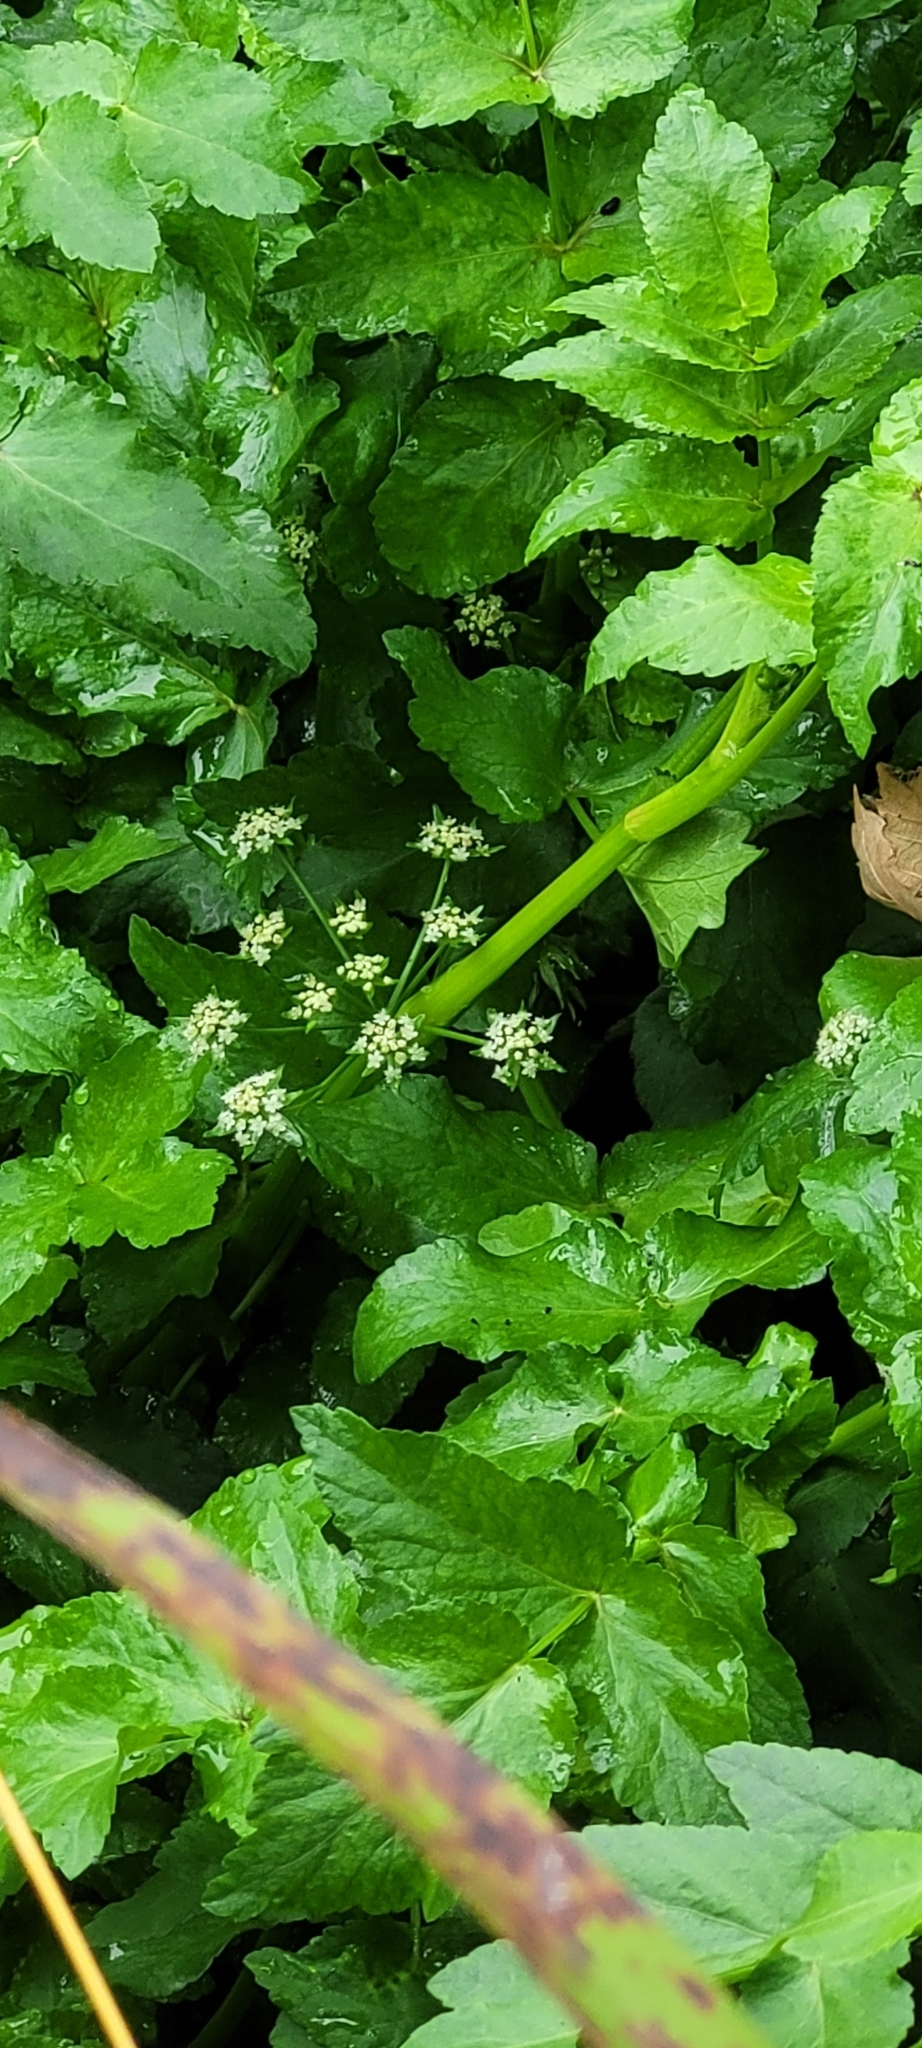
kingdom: Plantae
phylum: Tracheophyta
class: Magnoliopsida
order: Apiales
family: Apiaceae
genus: Helosciadium
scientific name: Helosciadium nodiflorum
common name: Fool's-watercress
